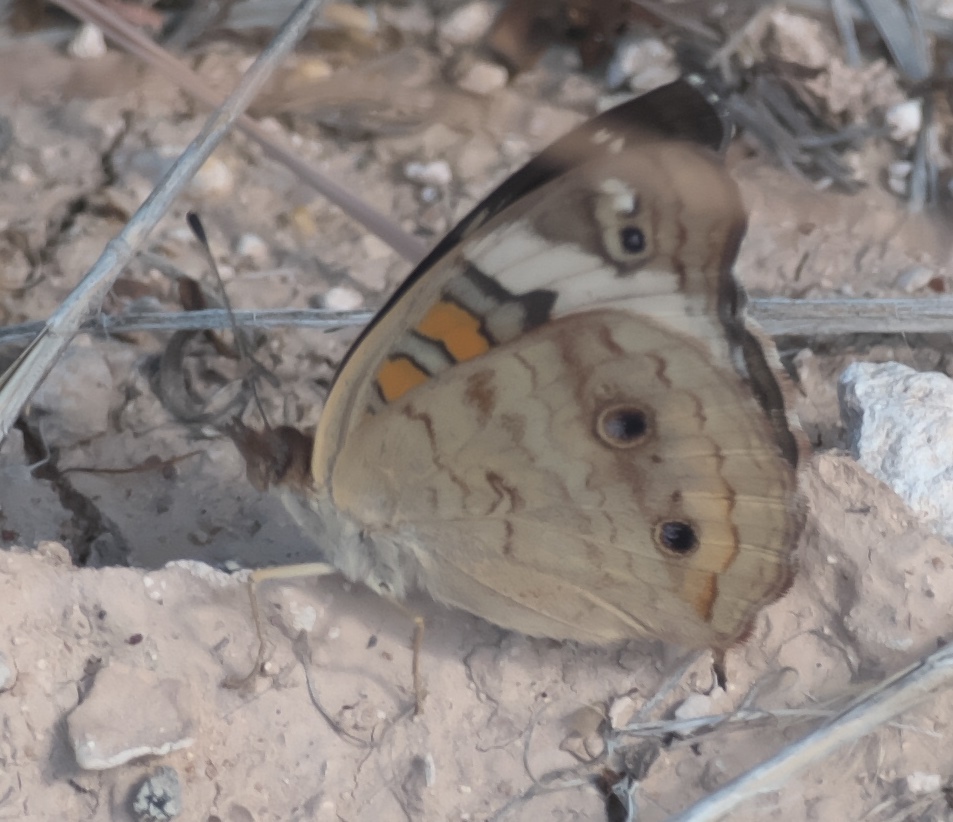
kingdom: Animalia
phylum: Arthropoda
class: Insecta
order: Lepidoptera
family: Nymphalidae
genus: Junonia
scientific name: Junonia coenia
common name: Common buckeye
